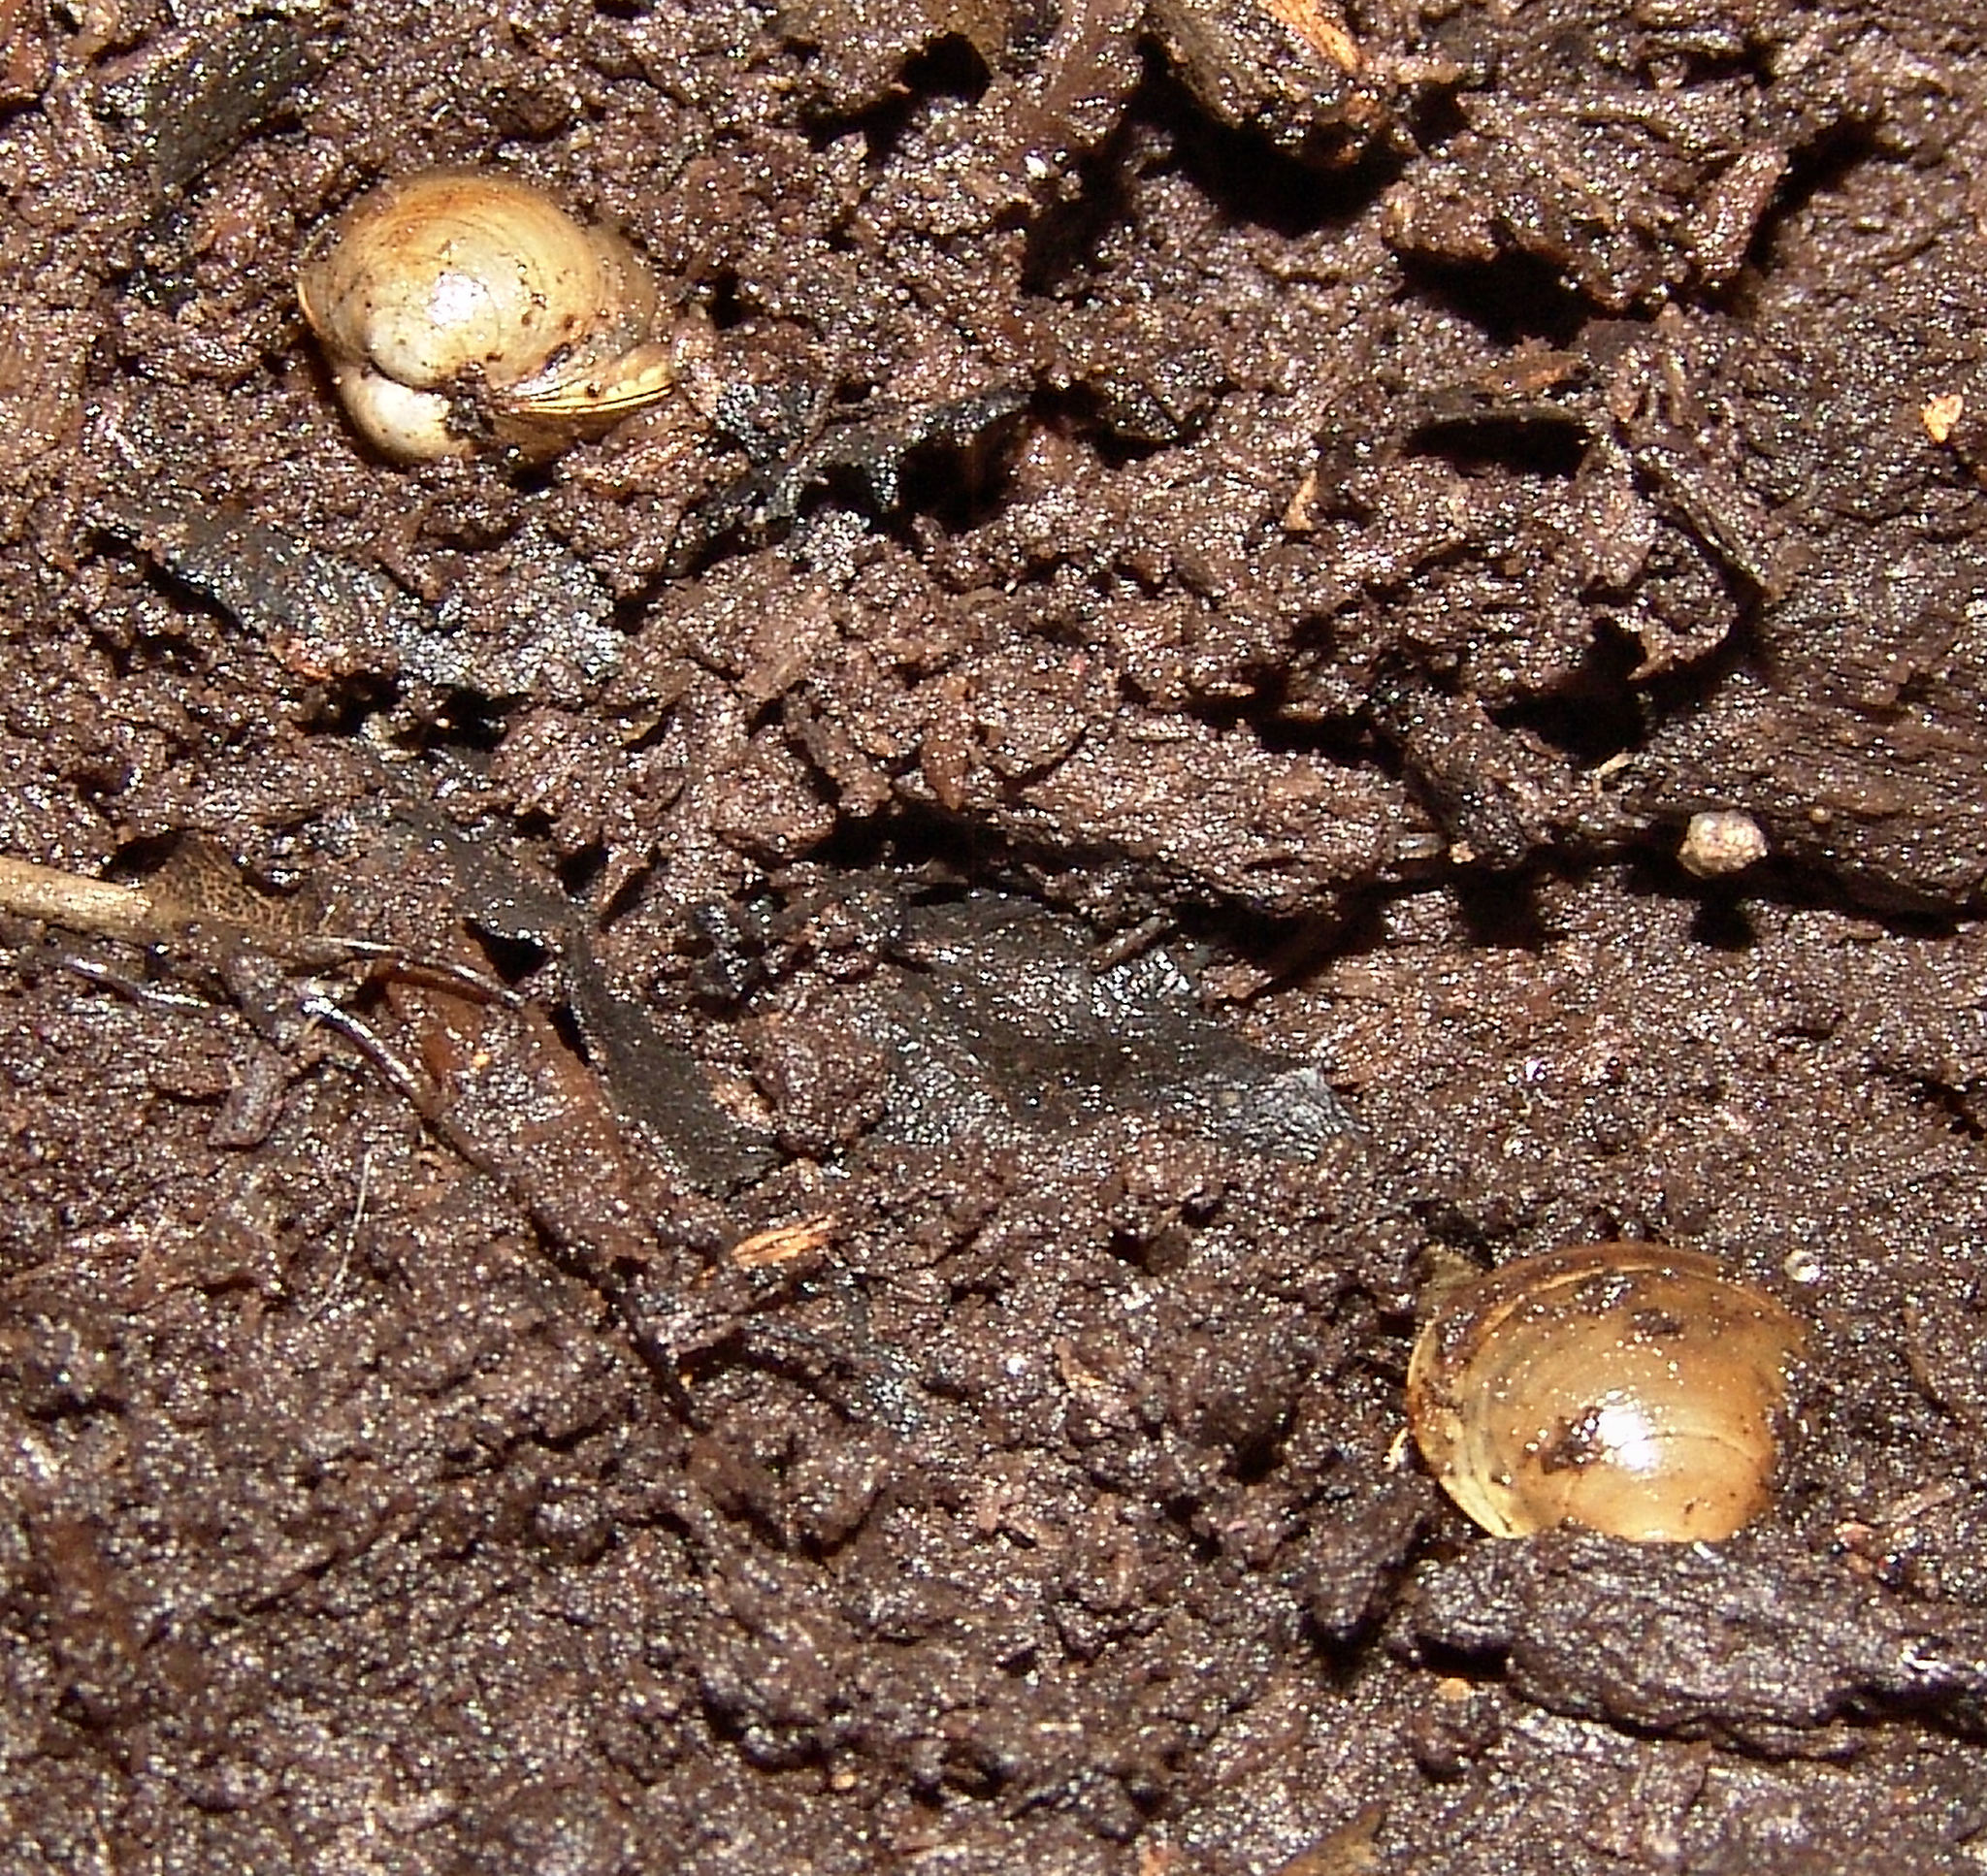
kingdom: Animalia
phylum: Mollusca
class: Bivalvia
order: Sphaeriida
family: Sphaeriidae
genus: Sphaerium
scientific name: Sphaerium occidentale
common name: Herrington fingernailclam
